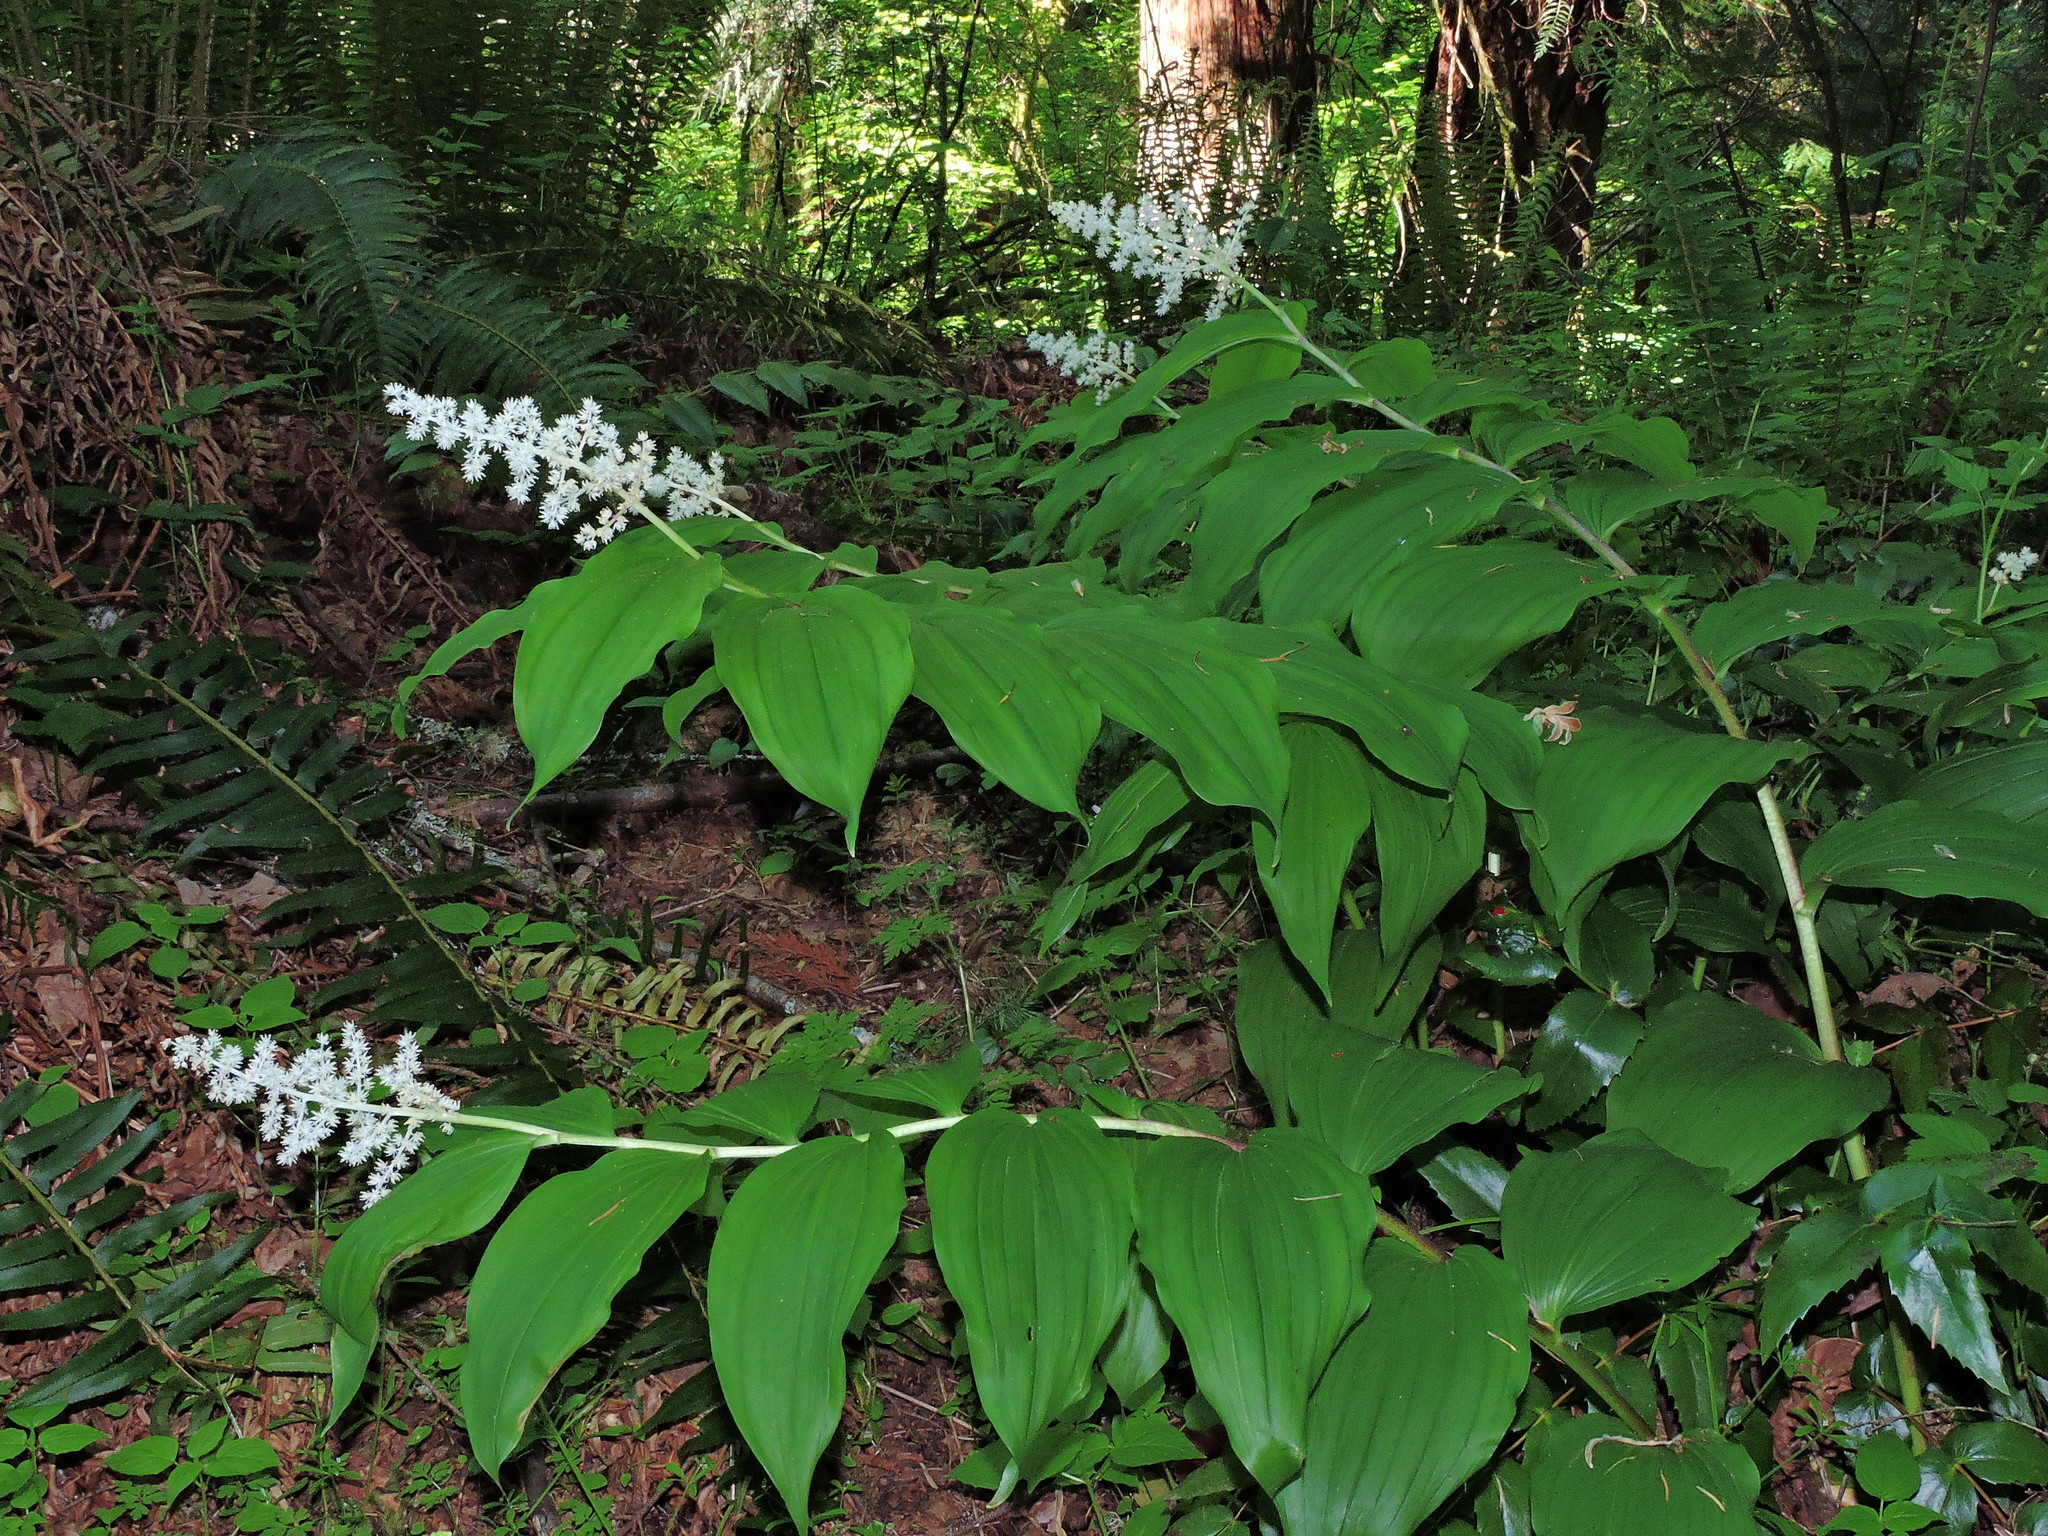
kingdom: Plantae
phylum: Tracheophyta
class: Liliopsida
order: Asparagales
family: Asparagaceae
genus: Maianthemum
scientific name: Maianthemum racemosum
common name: False spikenard
